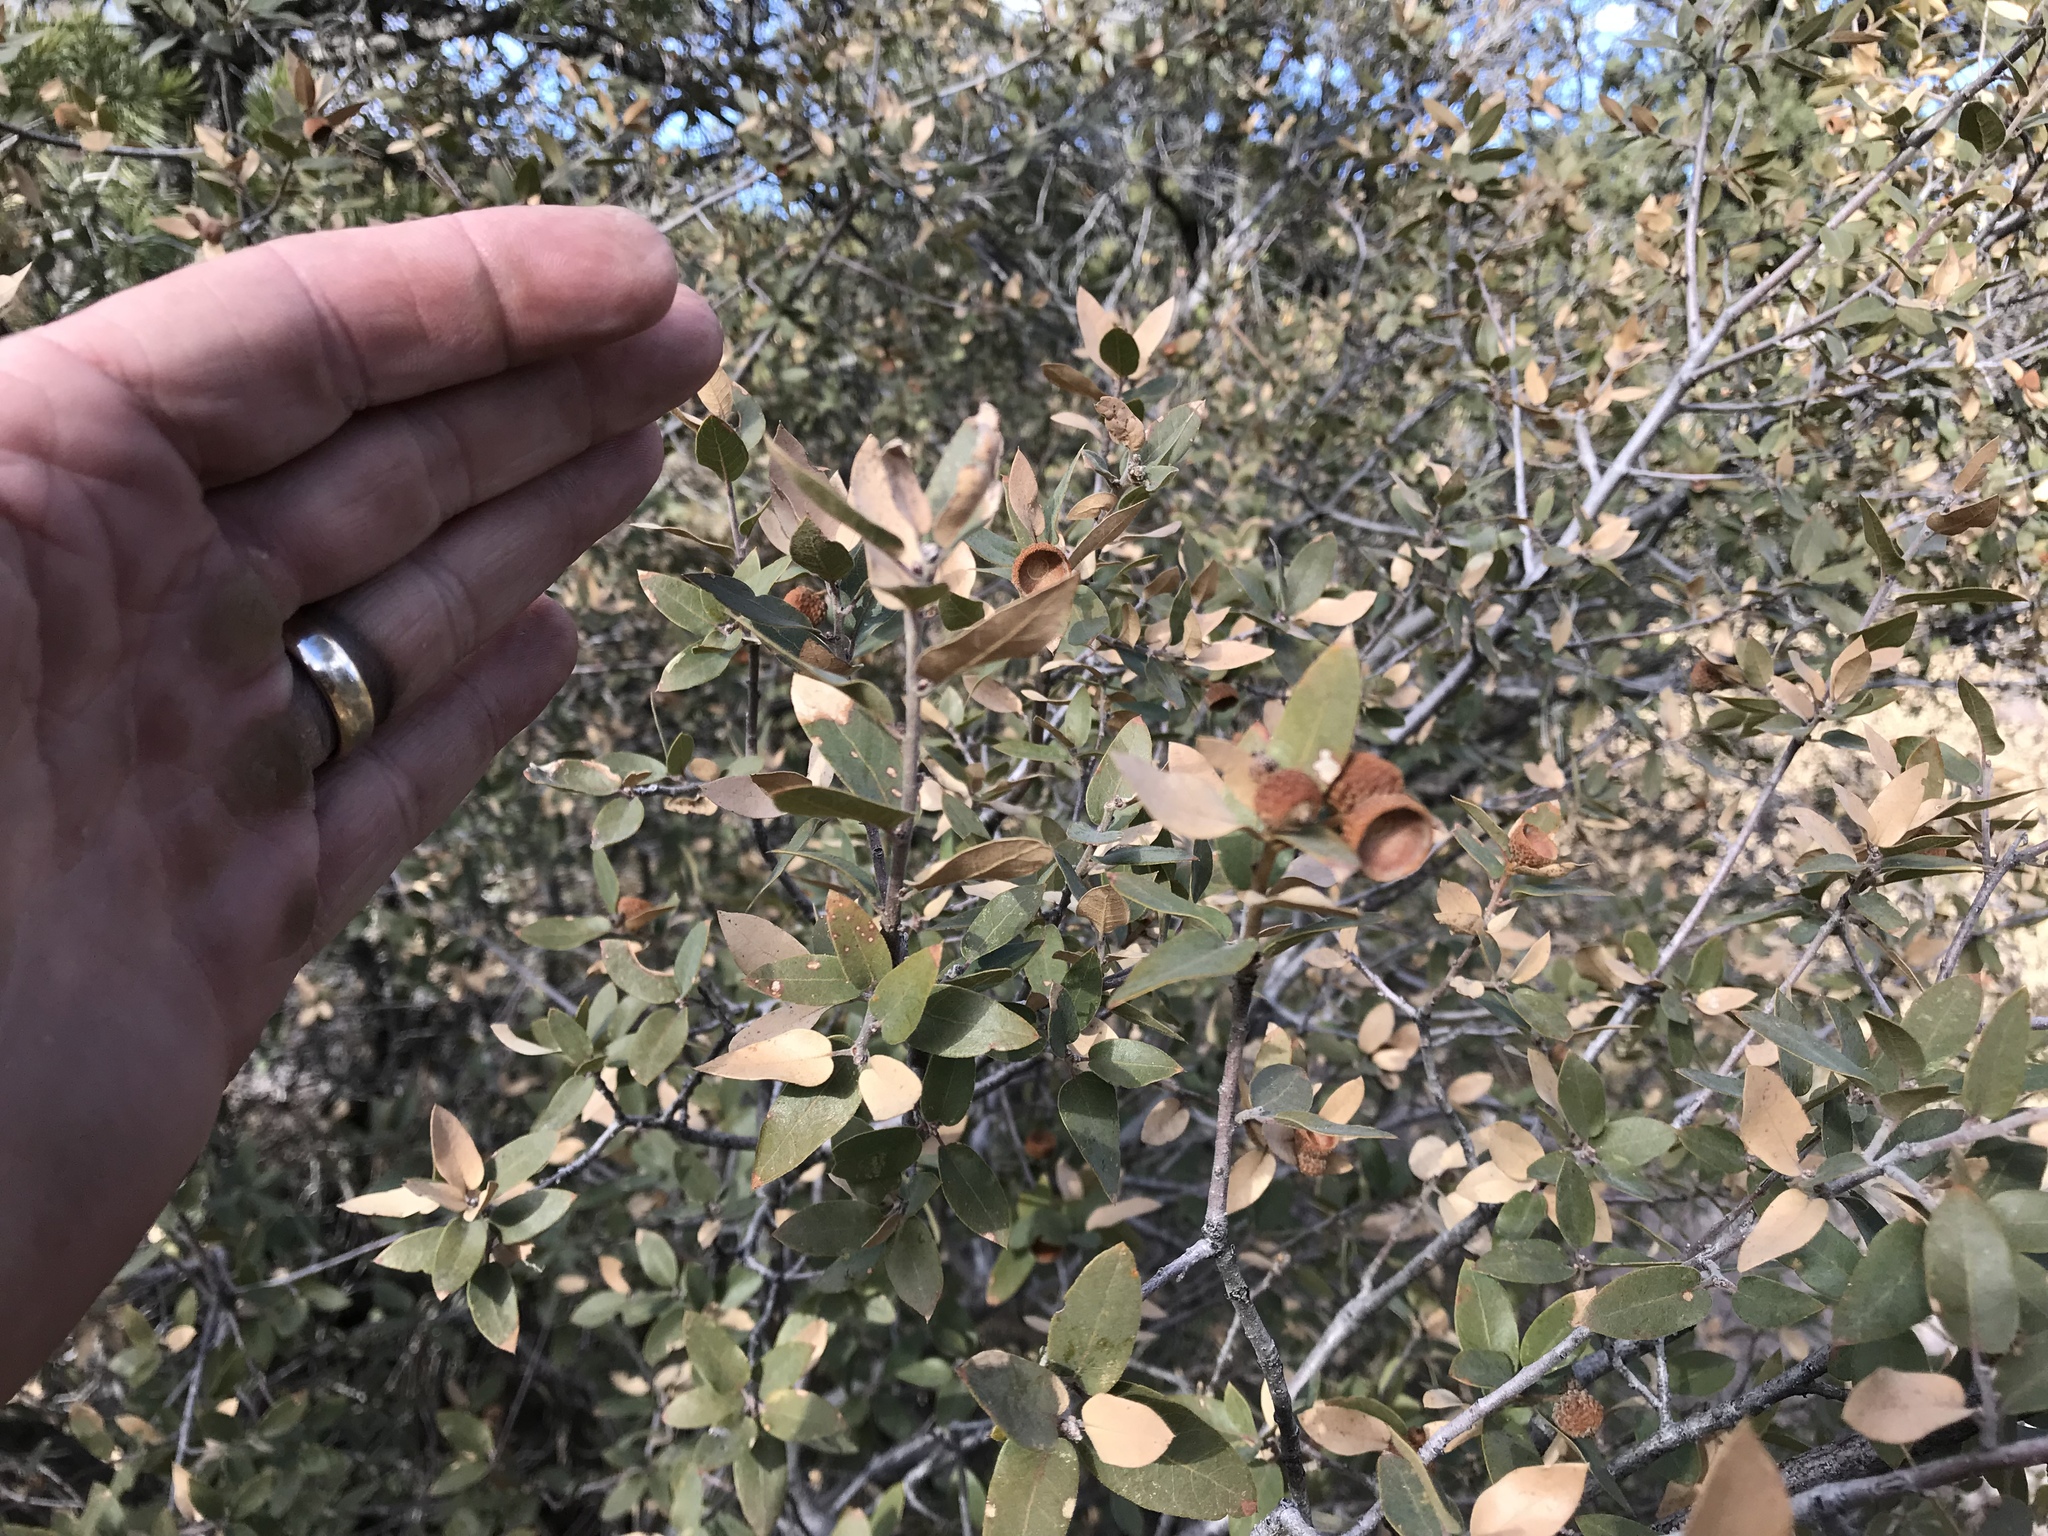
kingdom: Plantae
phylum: Tracheophyta
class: Magnoliopsida
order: Fagales
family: Fagaceae
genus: Quercus
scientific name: Quercus grisea
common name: Gray oak
